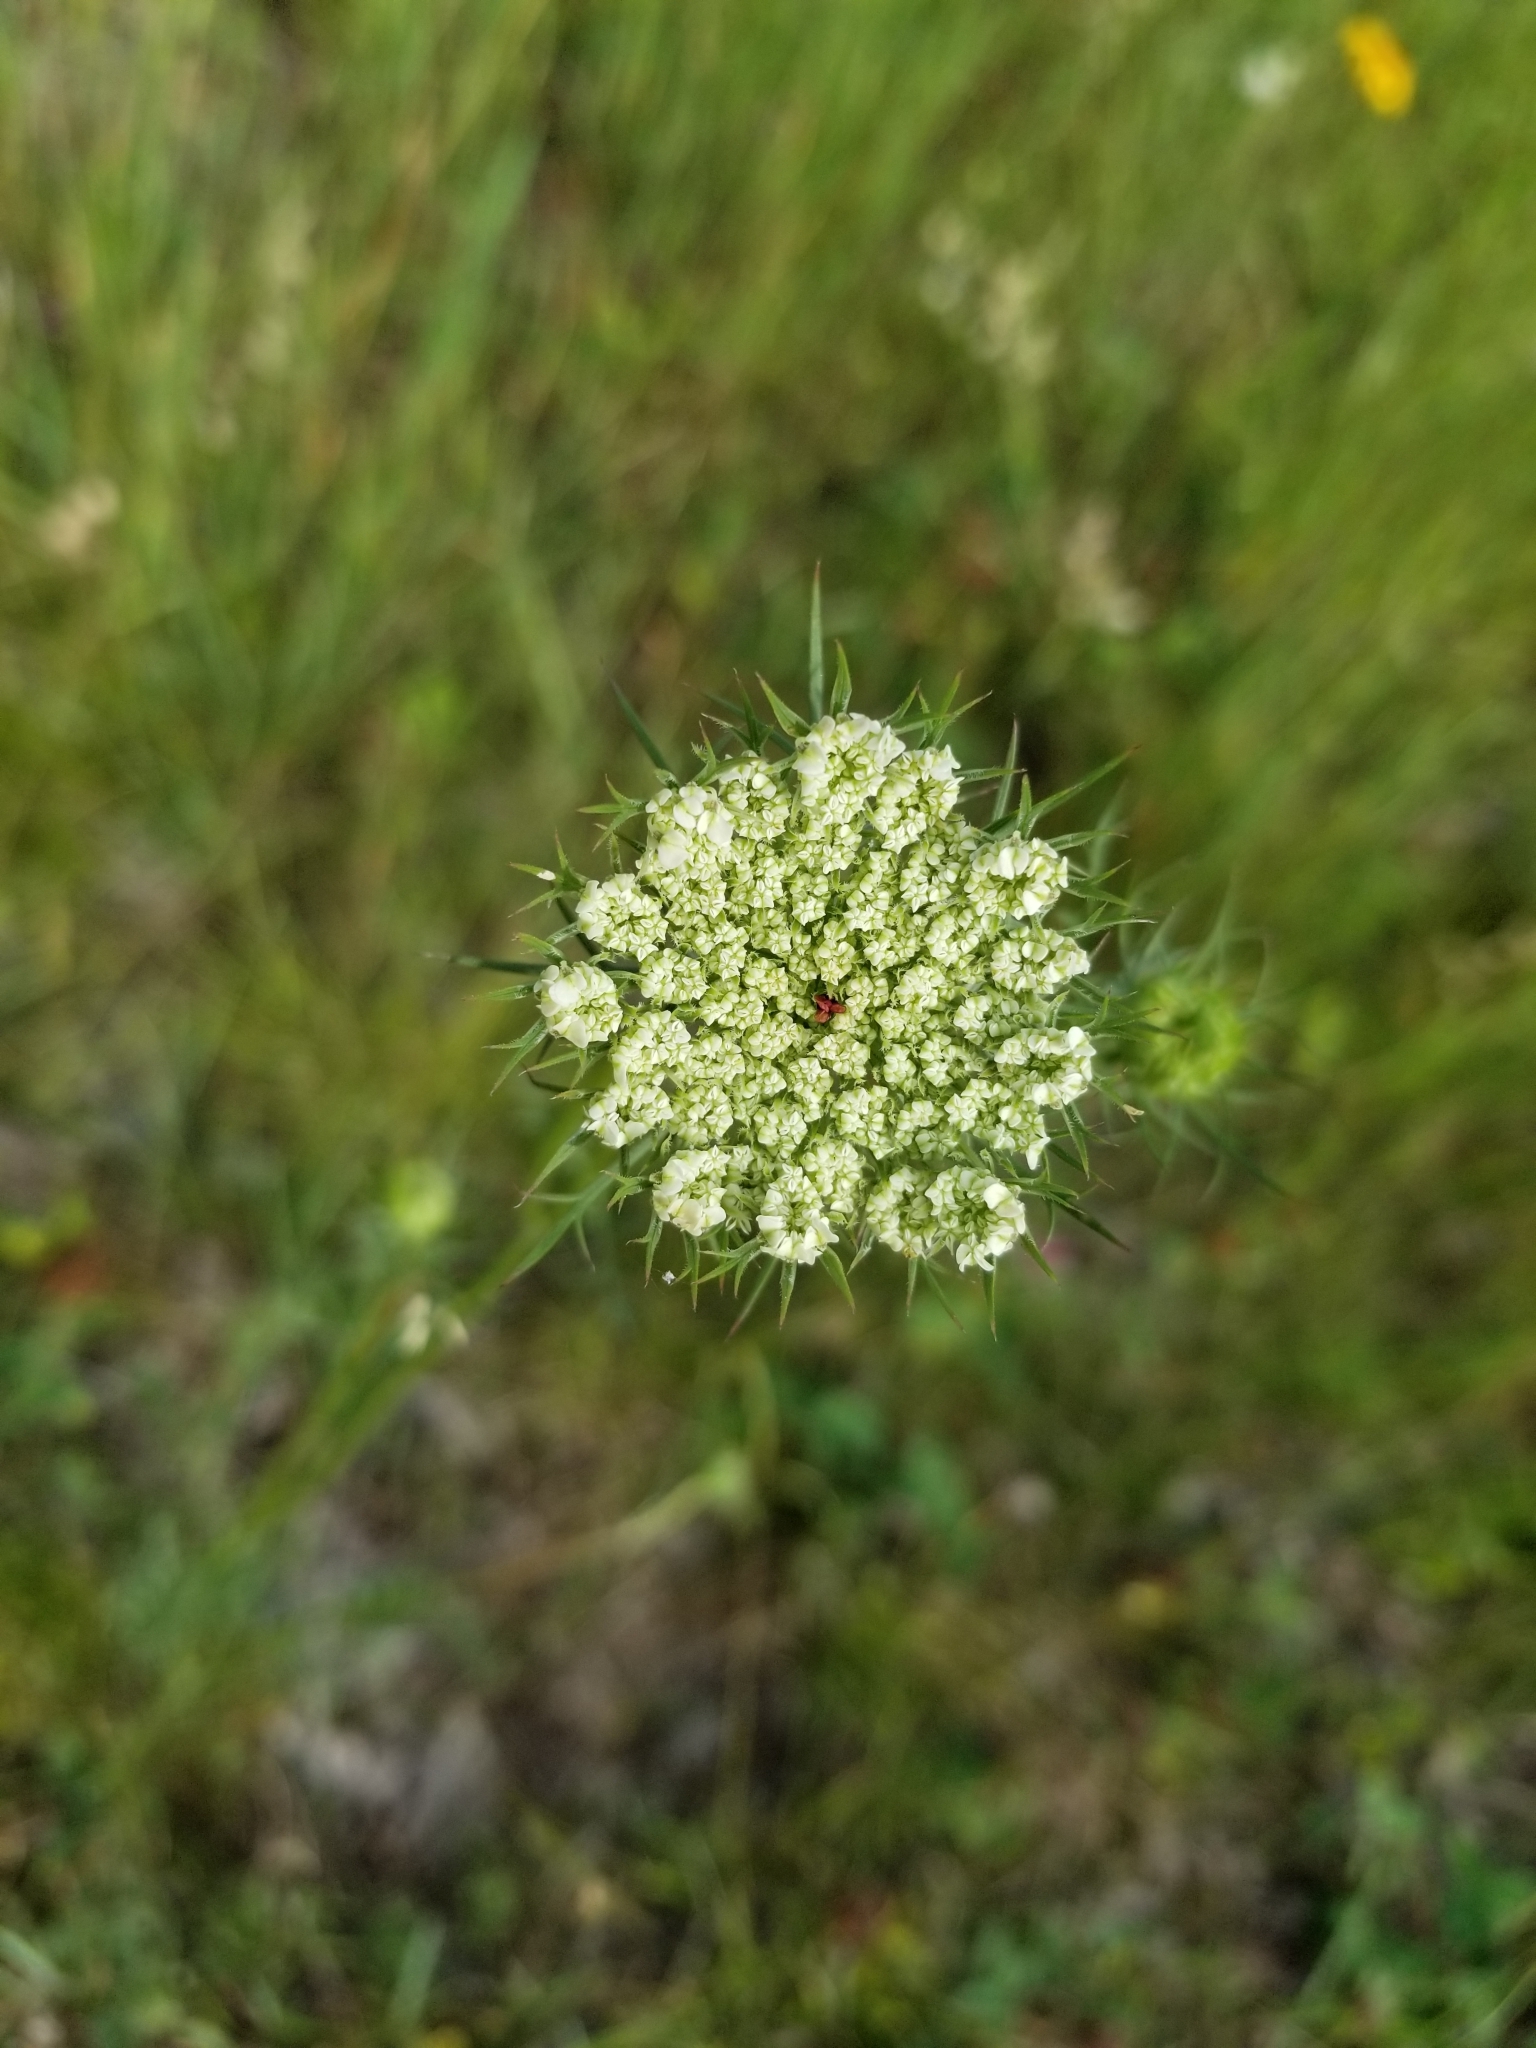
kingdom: Plantae
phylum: Tracheophyta
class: Magnoliopsida
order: Apiales
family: Apiaceae
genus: Daucus
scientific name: Daucus carota
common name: Wild carrot
